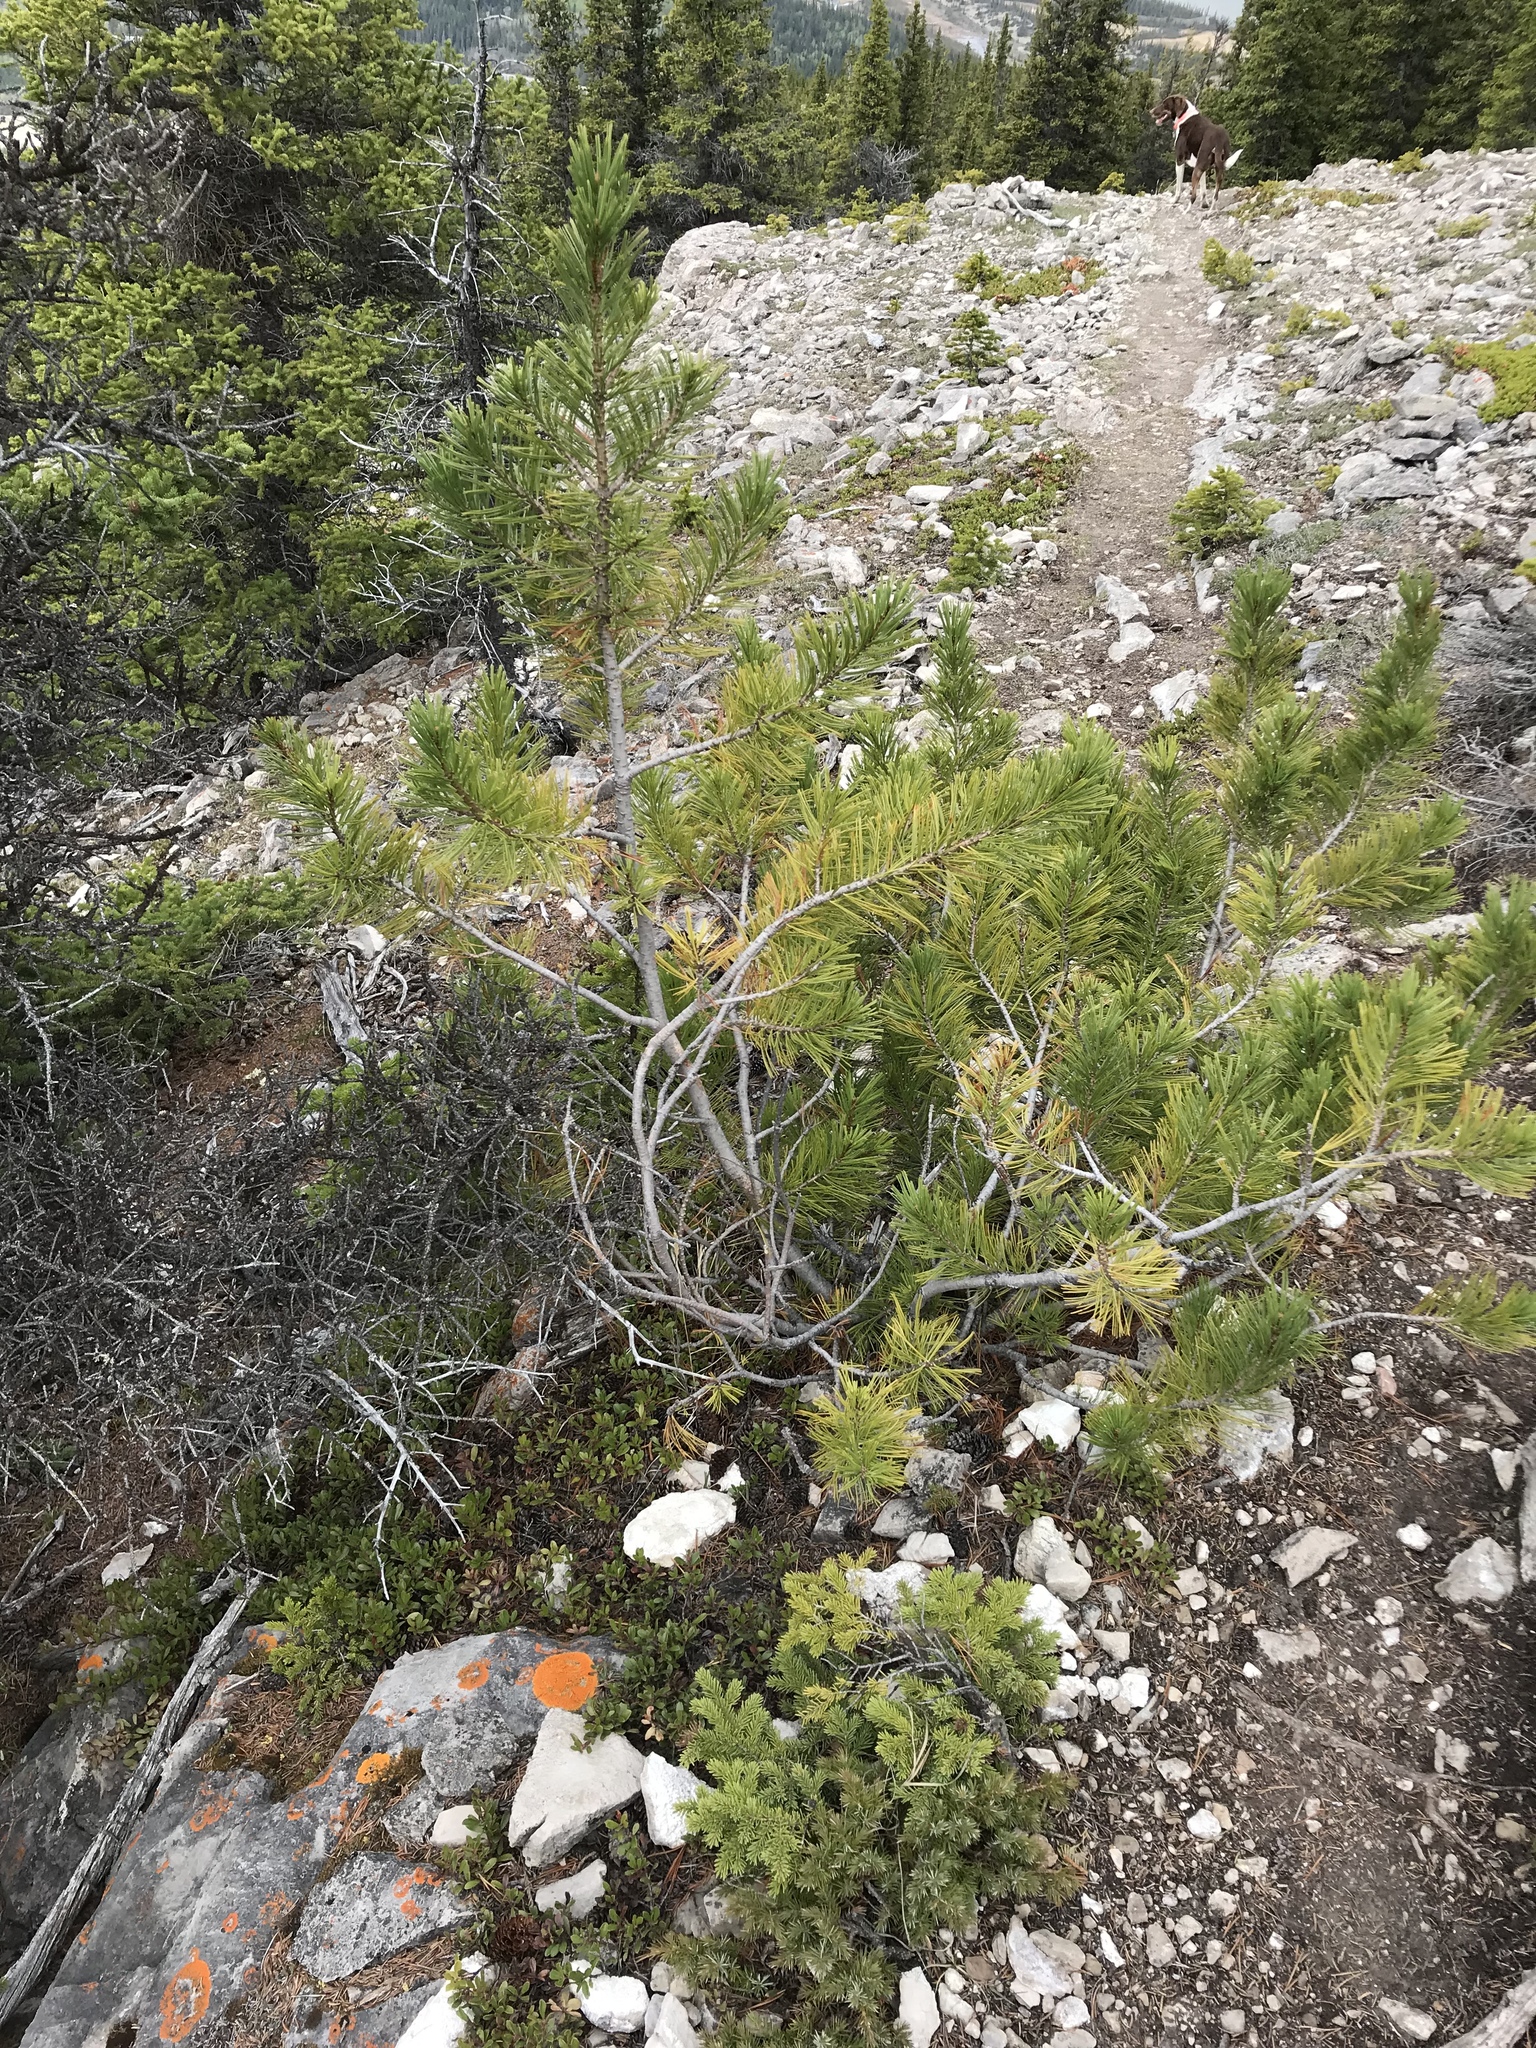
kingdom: Plantae
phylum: Tracheophyta
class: Pinopsida
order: Pinales
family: Pinaceae
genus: Pinus
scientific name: Pinus albicaulis
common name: Whitebark pine
